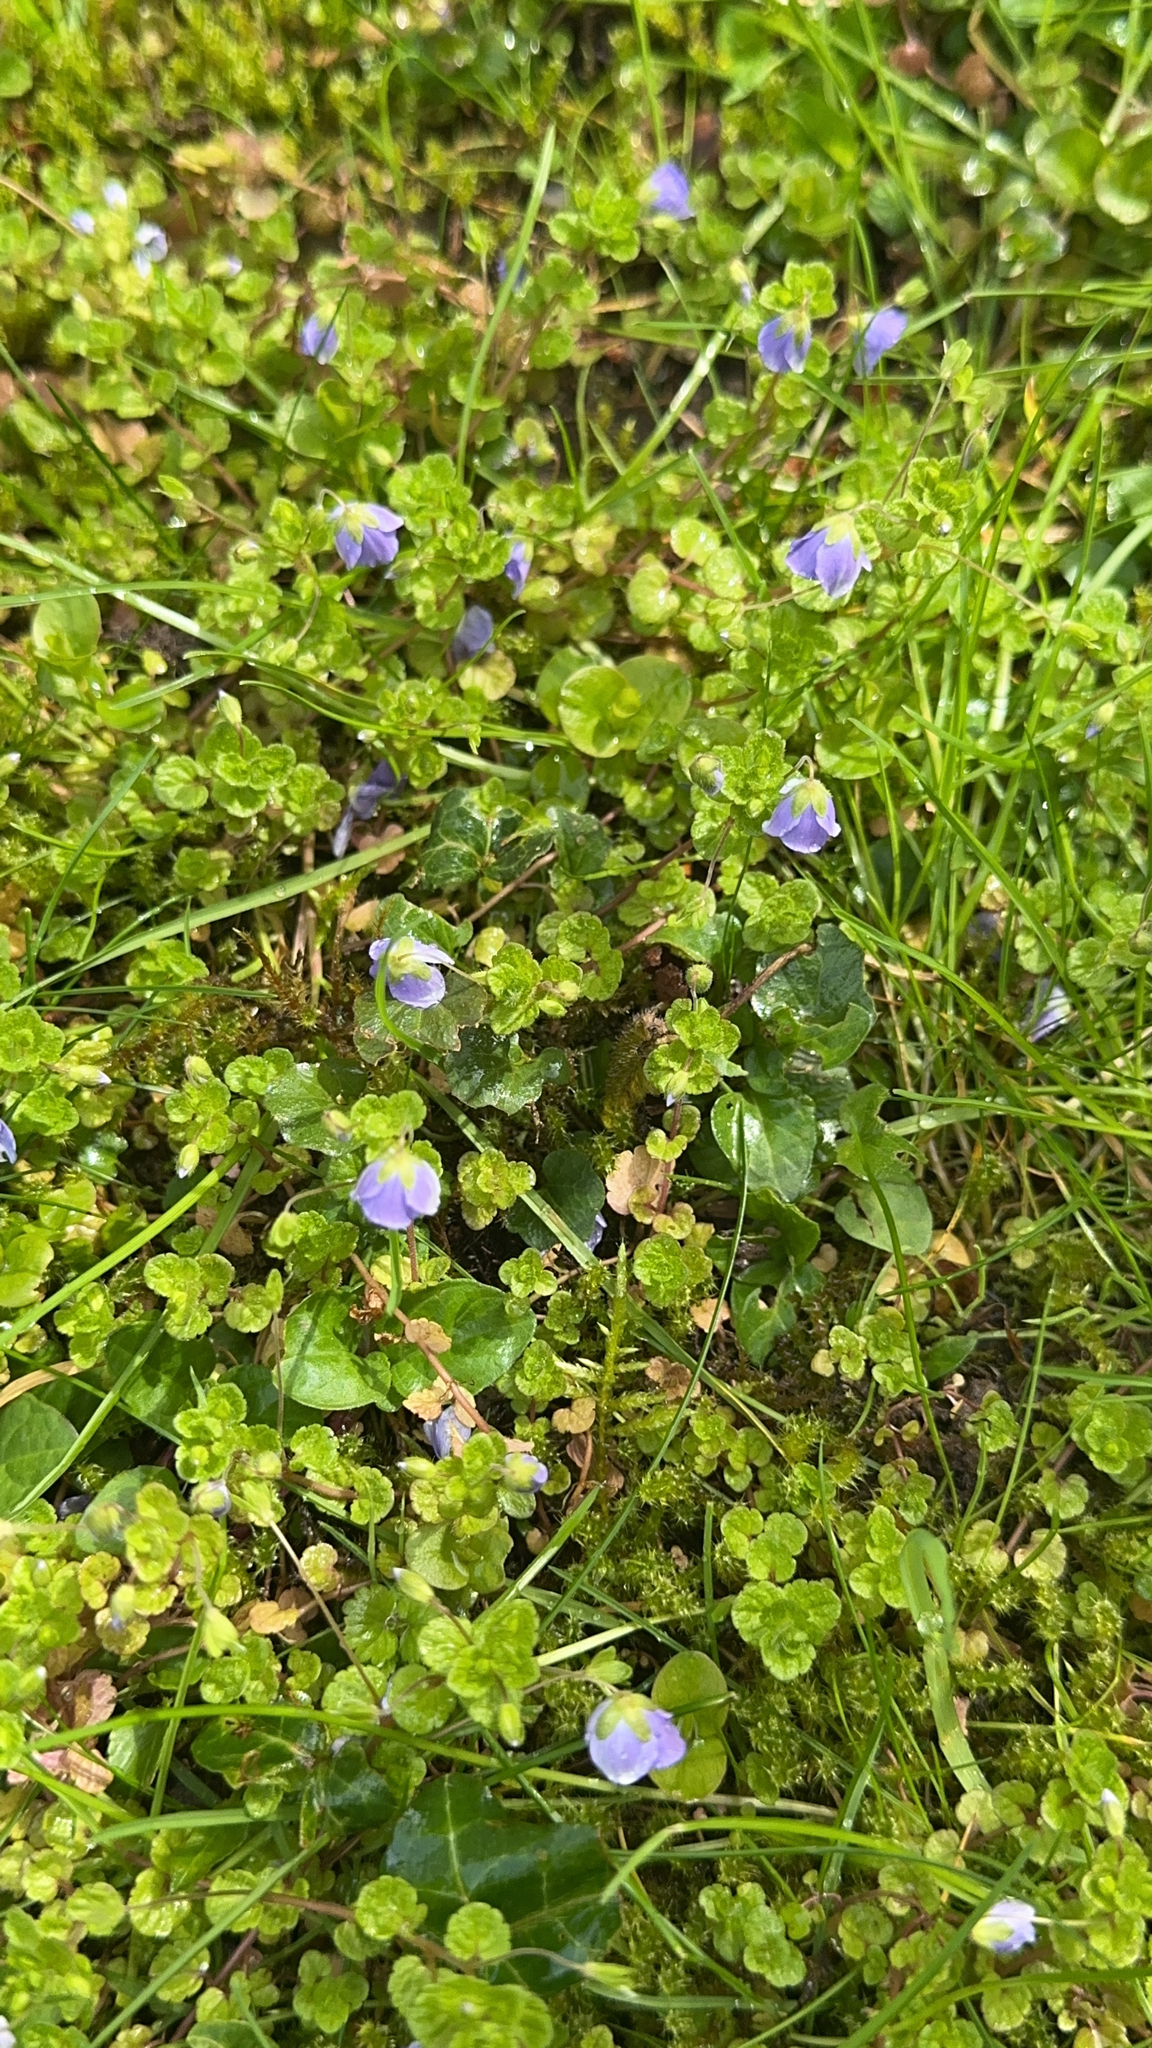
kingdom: Plantae
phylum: Tracheophyta
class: Magnoliopsida
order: Lamiales
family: Plantaginaceae
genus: Veronica
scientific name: Veronica filiformis
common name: Slender speedwell
